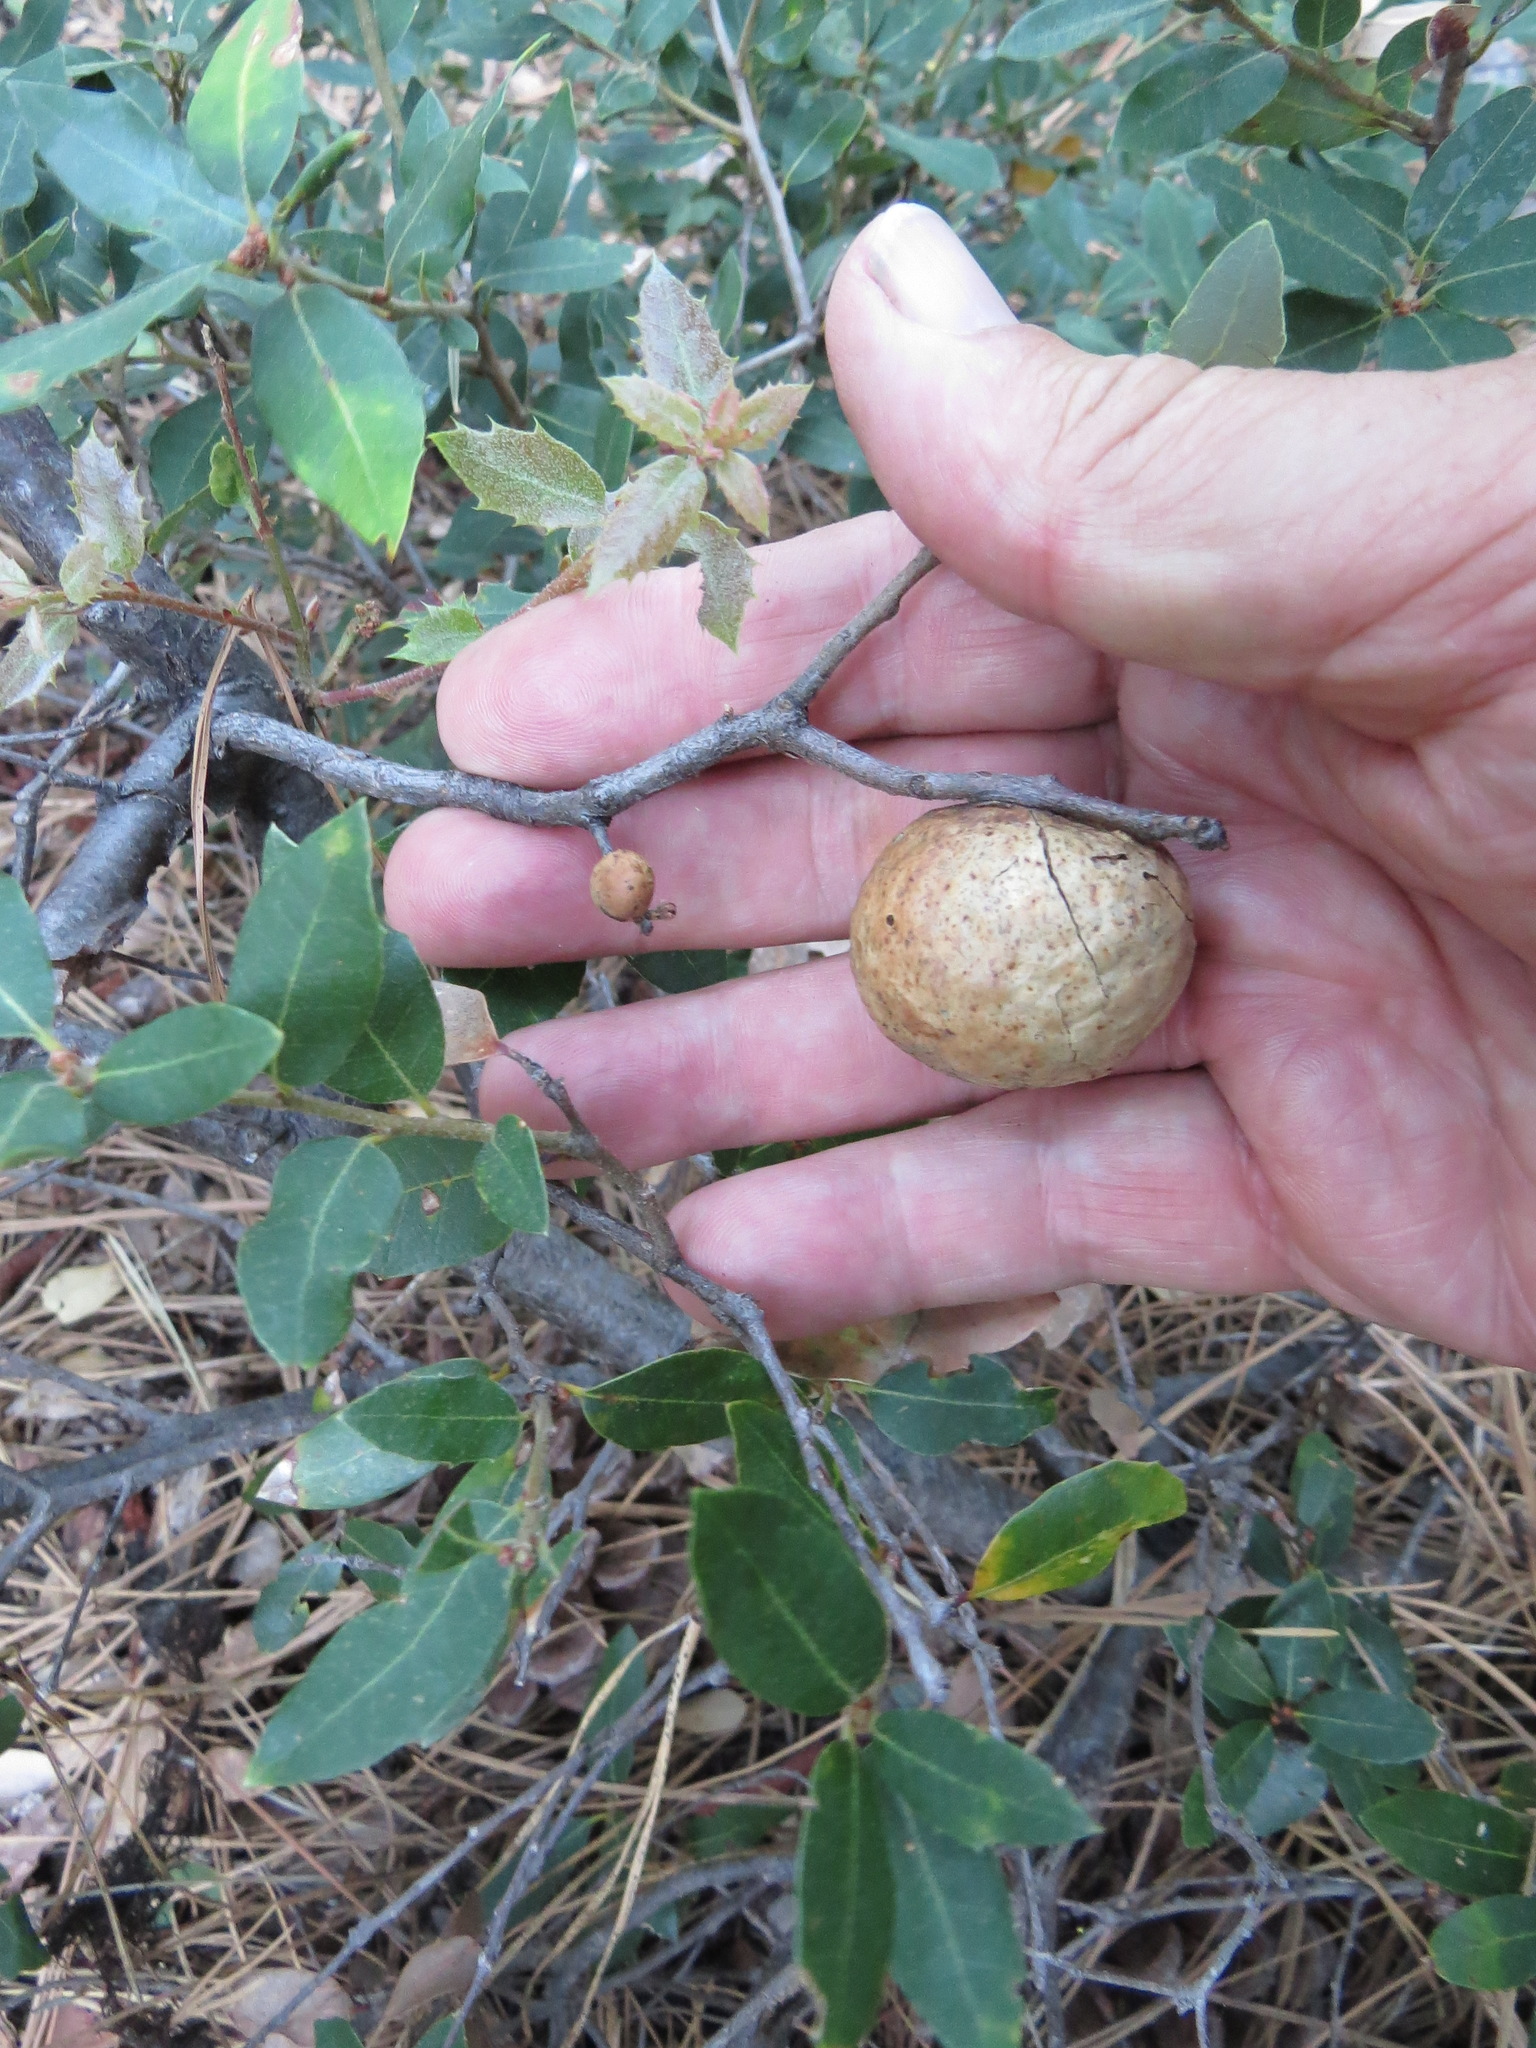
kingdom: Animalia
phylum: Arthropoda
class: Insecta
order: Hymenoptera
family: Cynipidae
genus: Disholandricus
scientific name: Disholandricus
